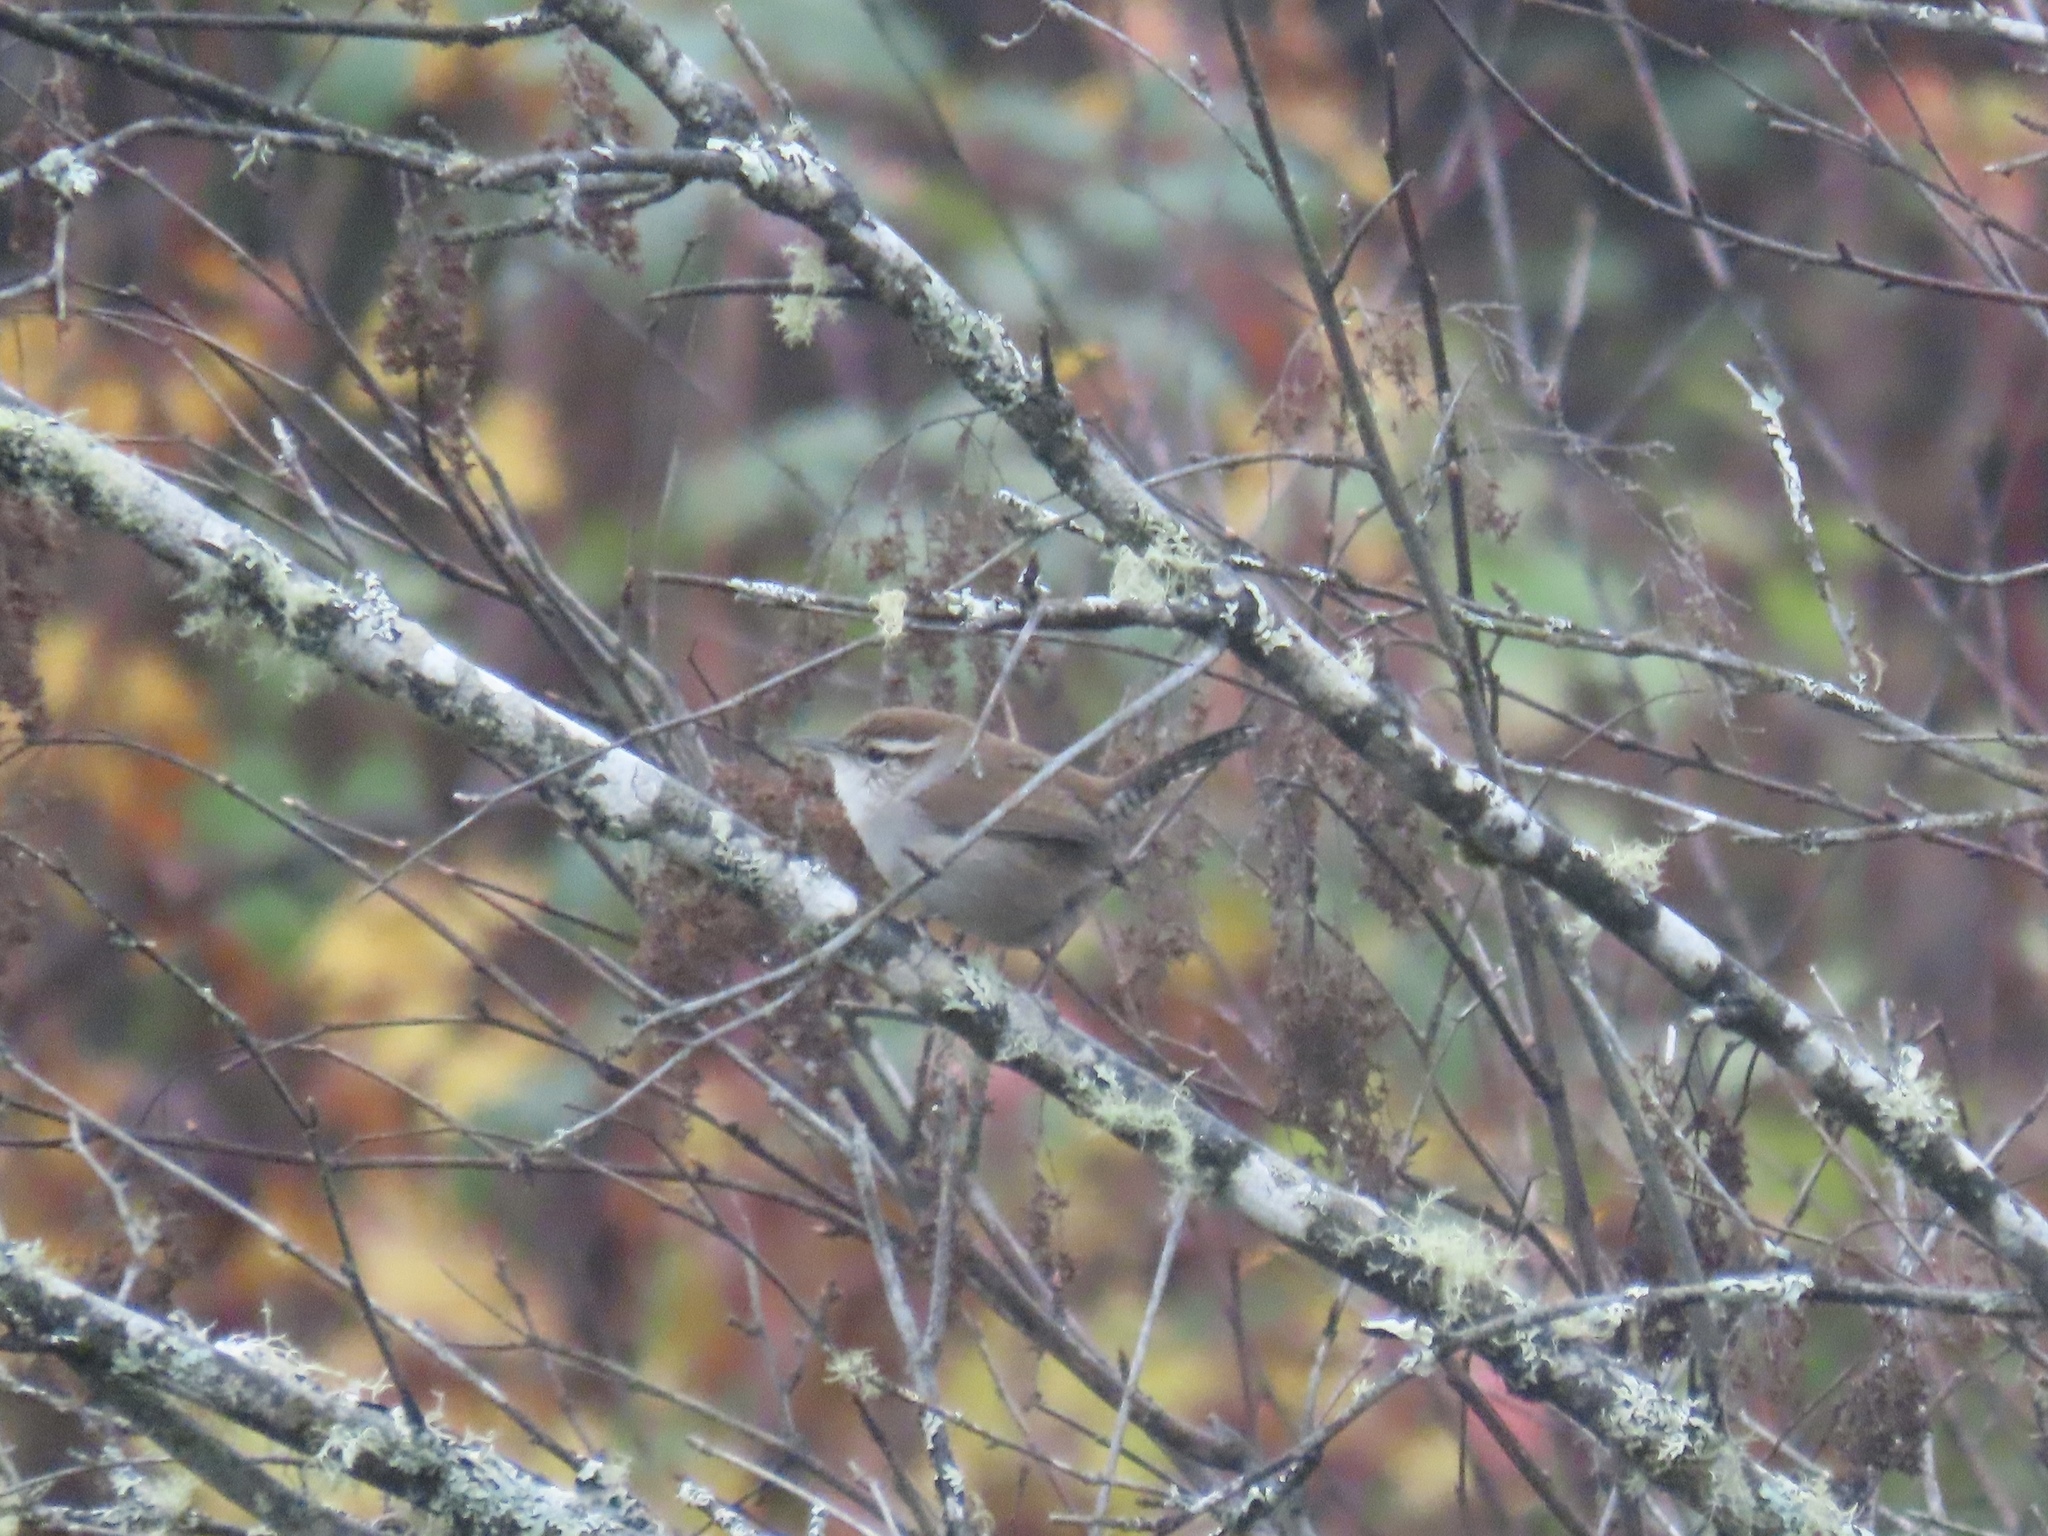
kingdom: Animalia
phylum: Chordata
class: Aves
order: Passeriformes
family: Troglodytidae
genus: Thryomanes
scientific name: Thryomanes bewickii
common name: Bewick's wren
